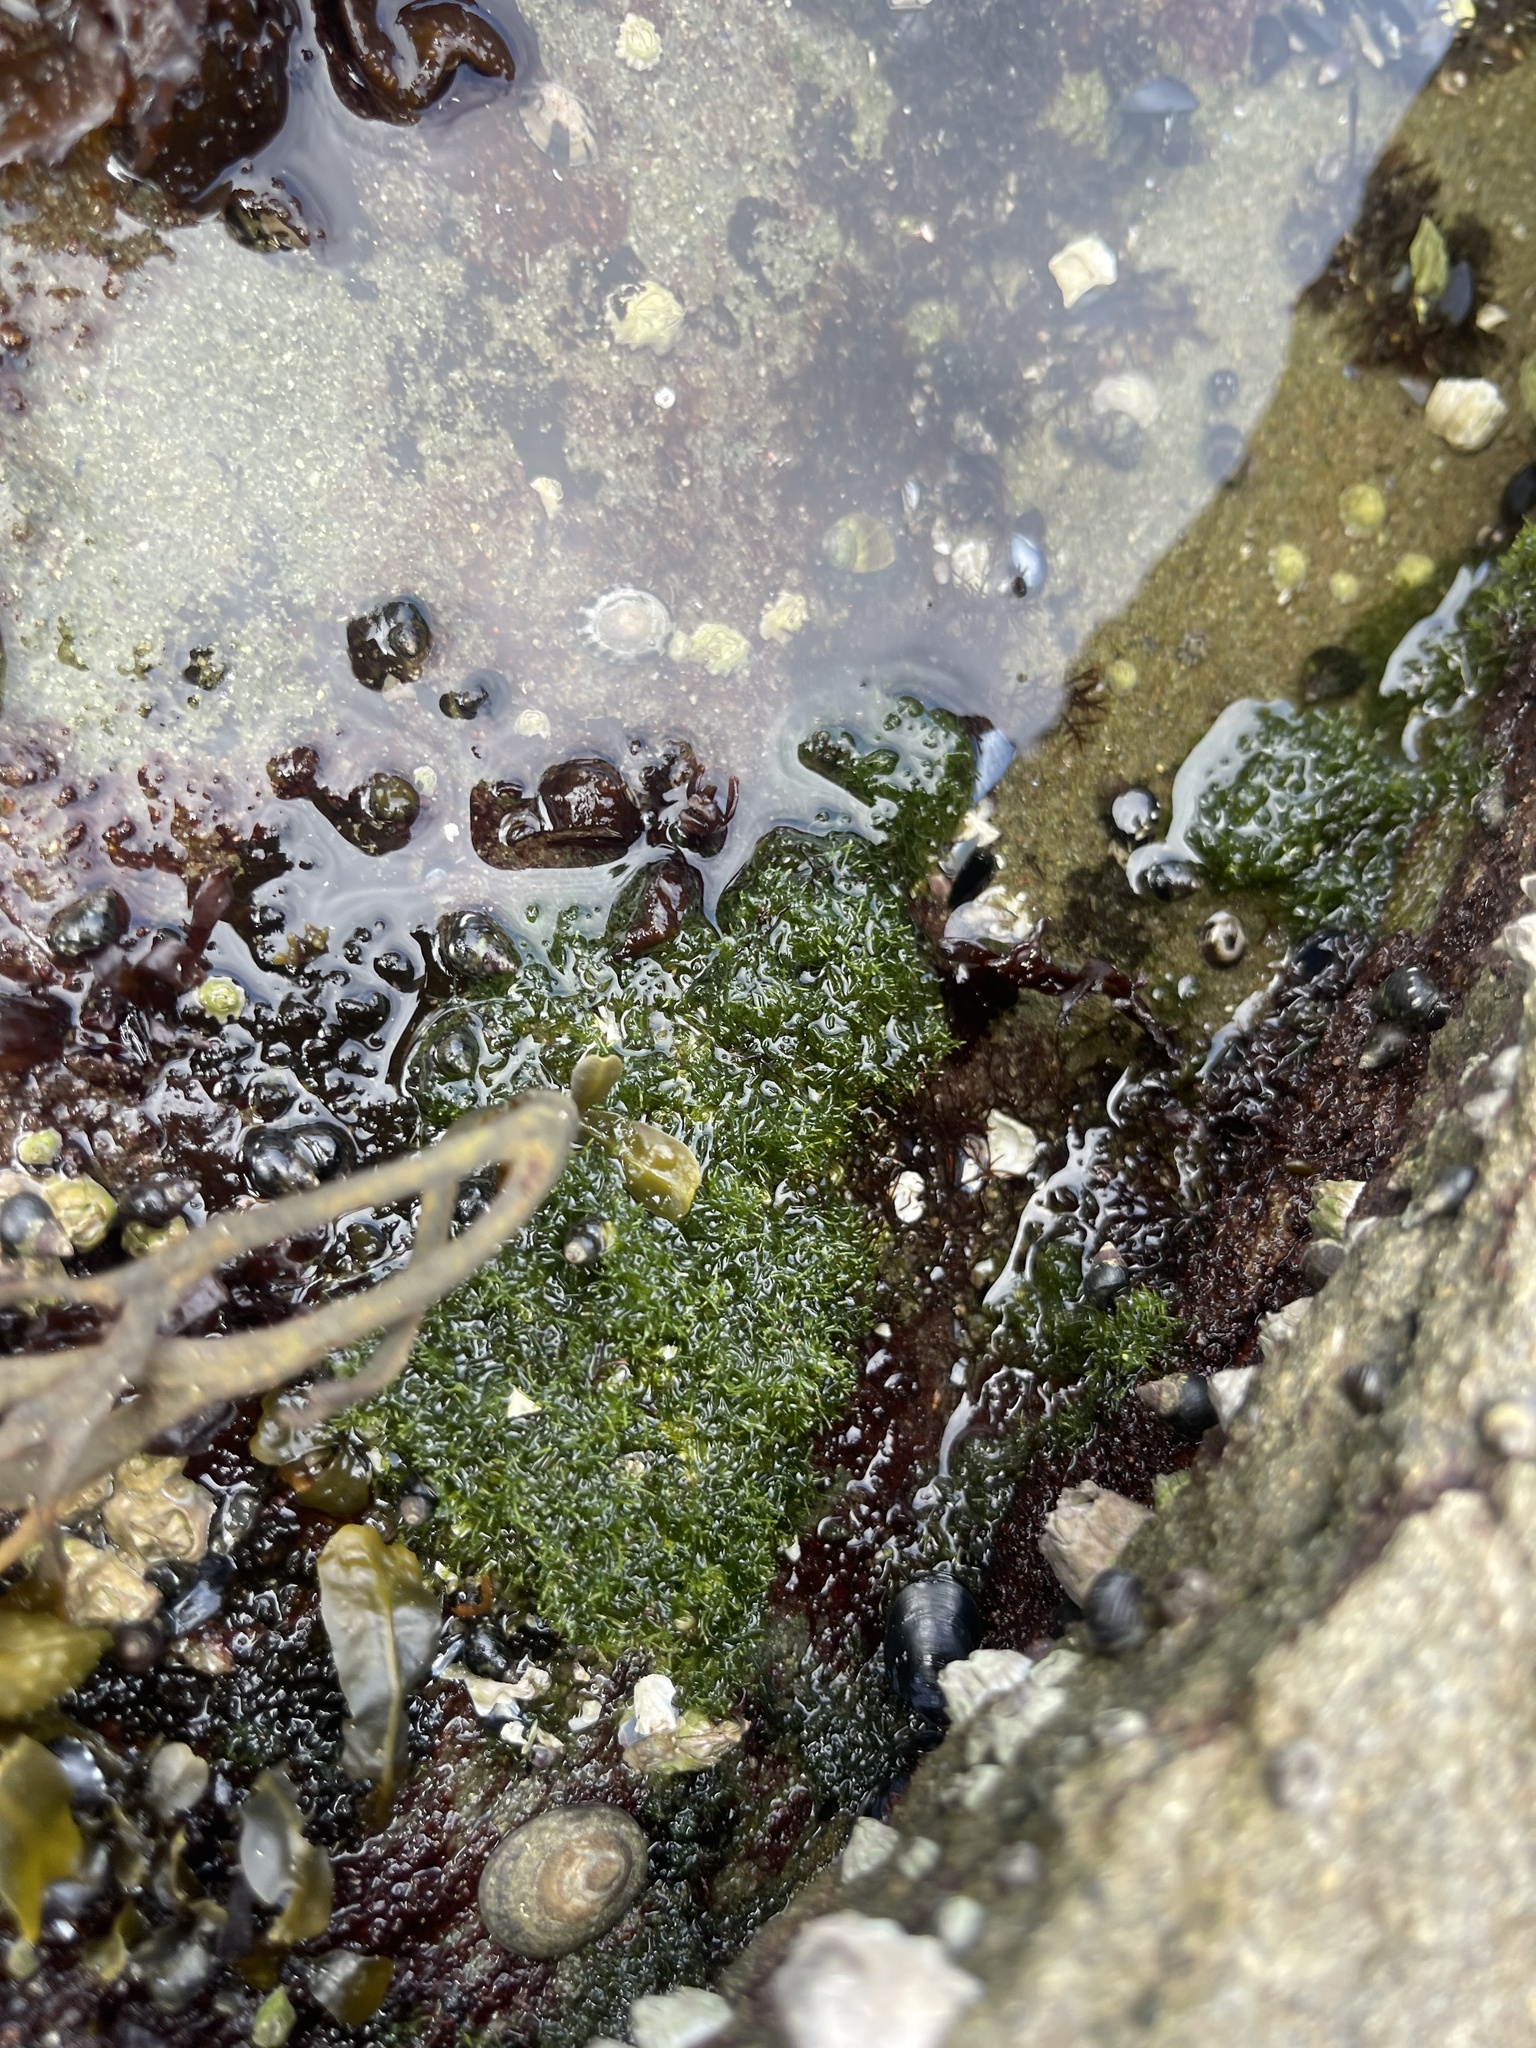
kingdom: Plantae
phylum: Chlorophyta
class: Ulvophyceae
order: Cladophorales
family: Cladophoraceae
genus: Cladophora
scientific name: Cladophora columbiana
